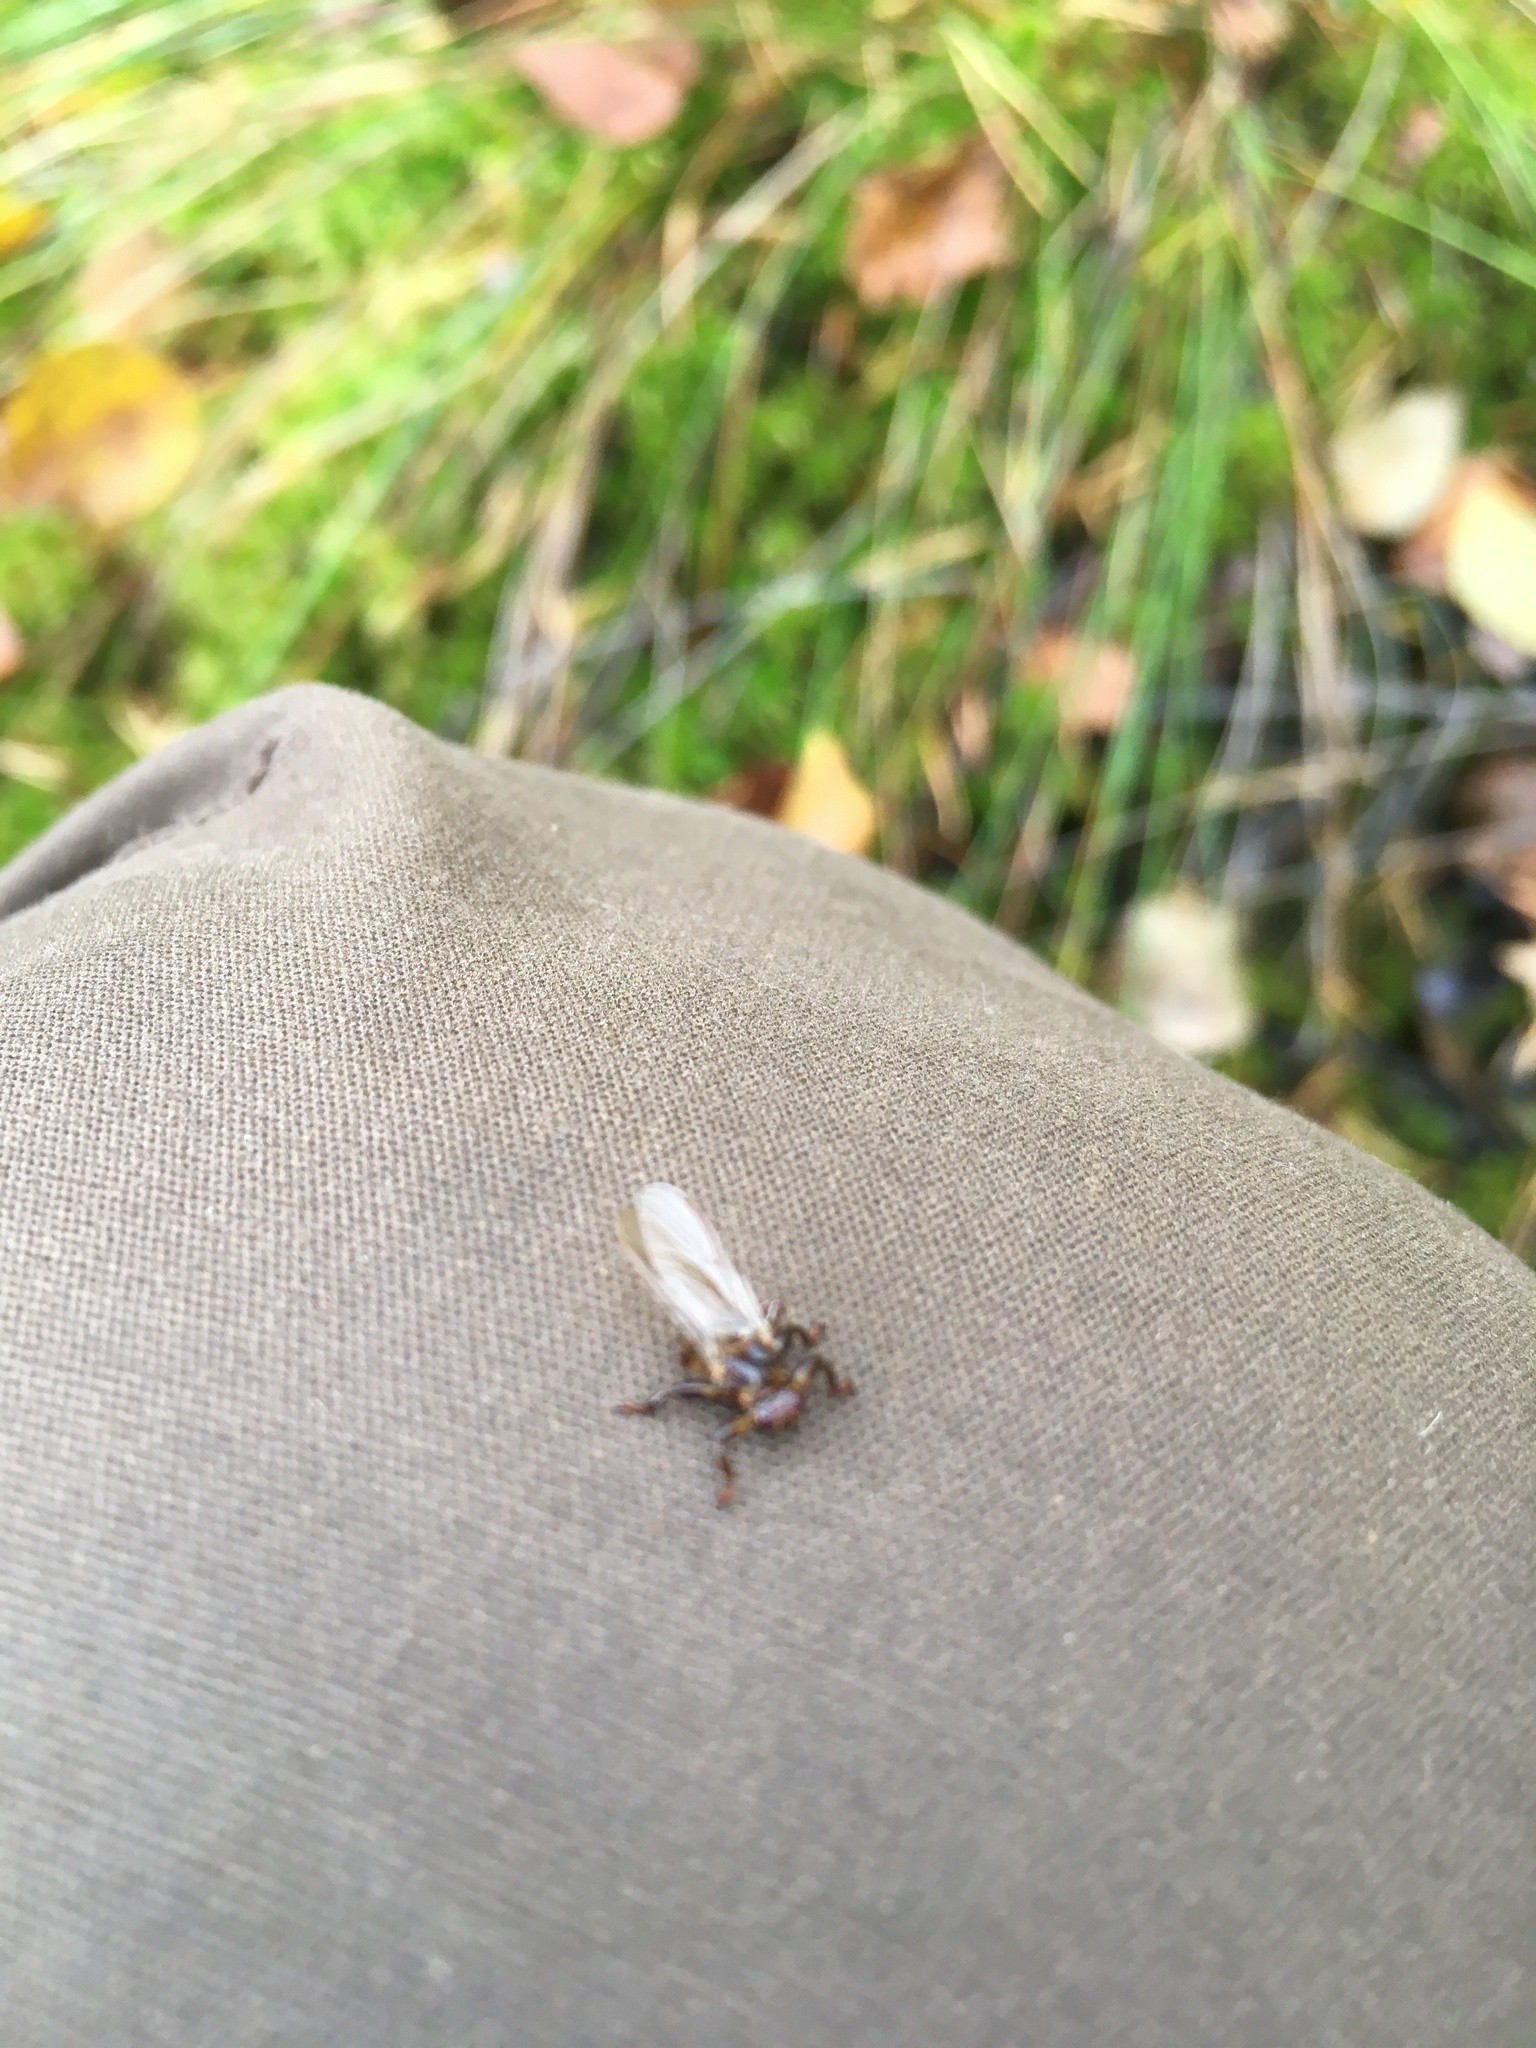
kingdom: Animalia
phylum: Arthropoda
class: Insecta
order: Diptera
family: Hippoboscidae
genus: Lipoptena
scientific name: Lipoptena cervi
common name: Deer ked
